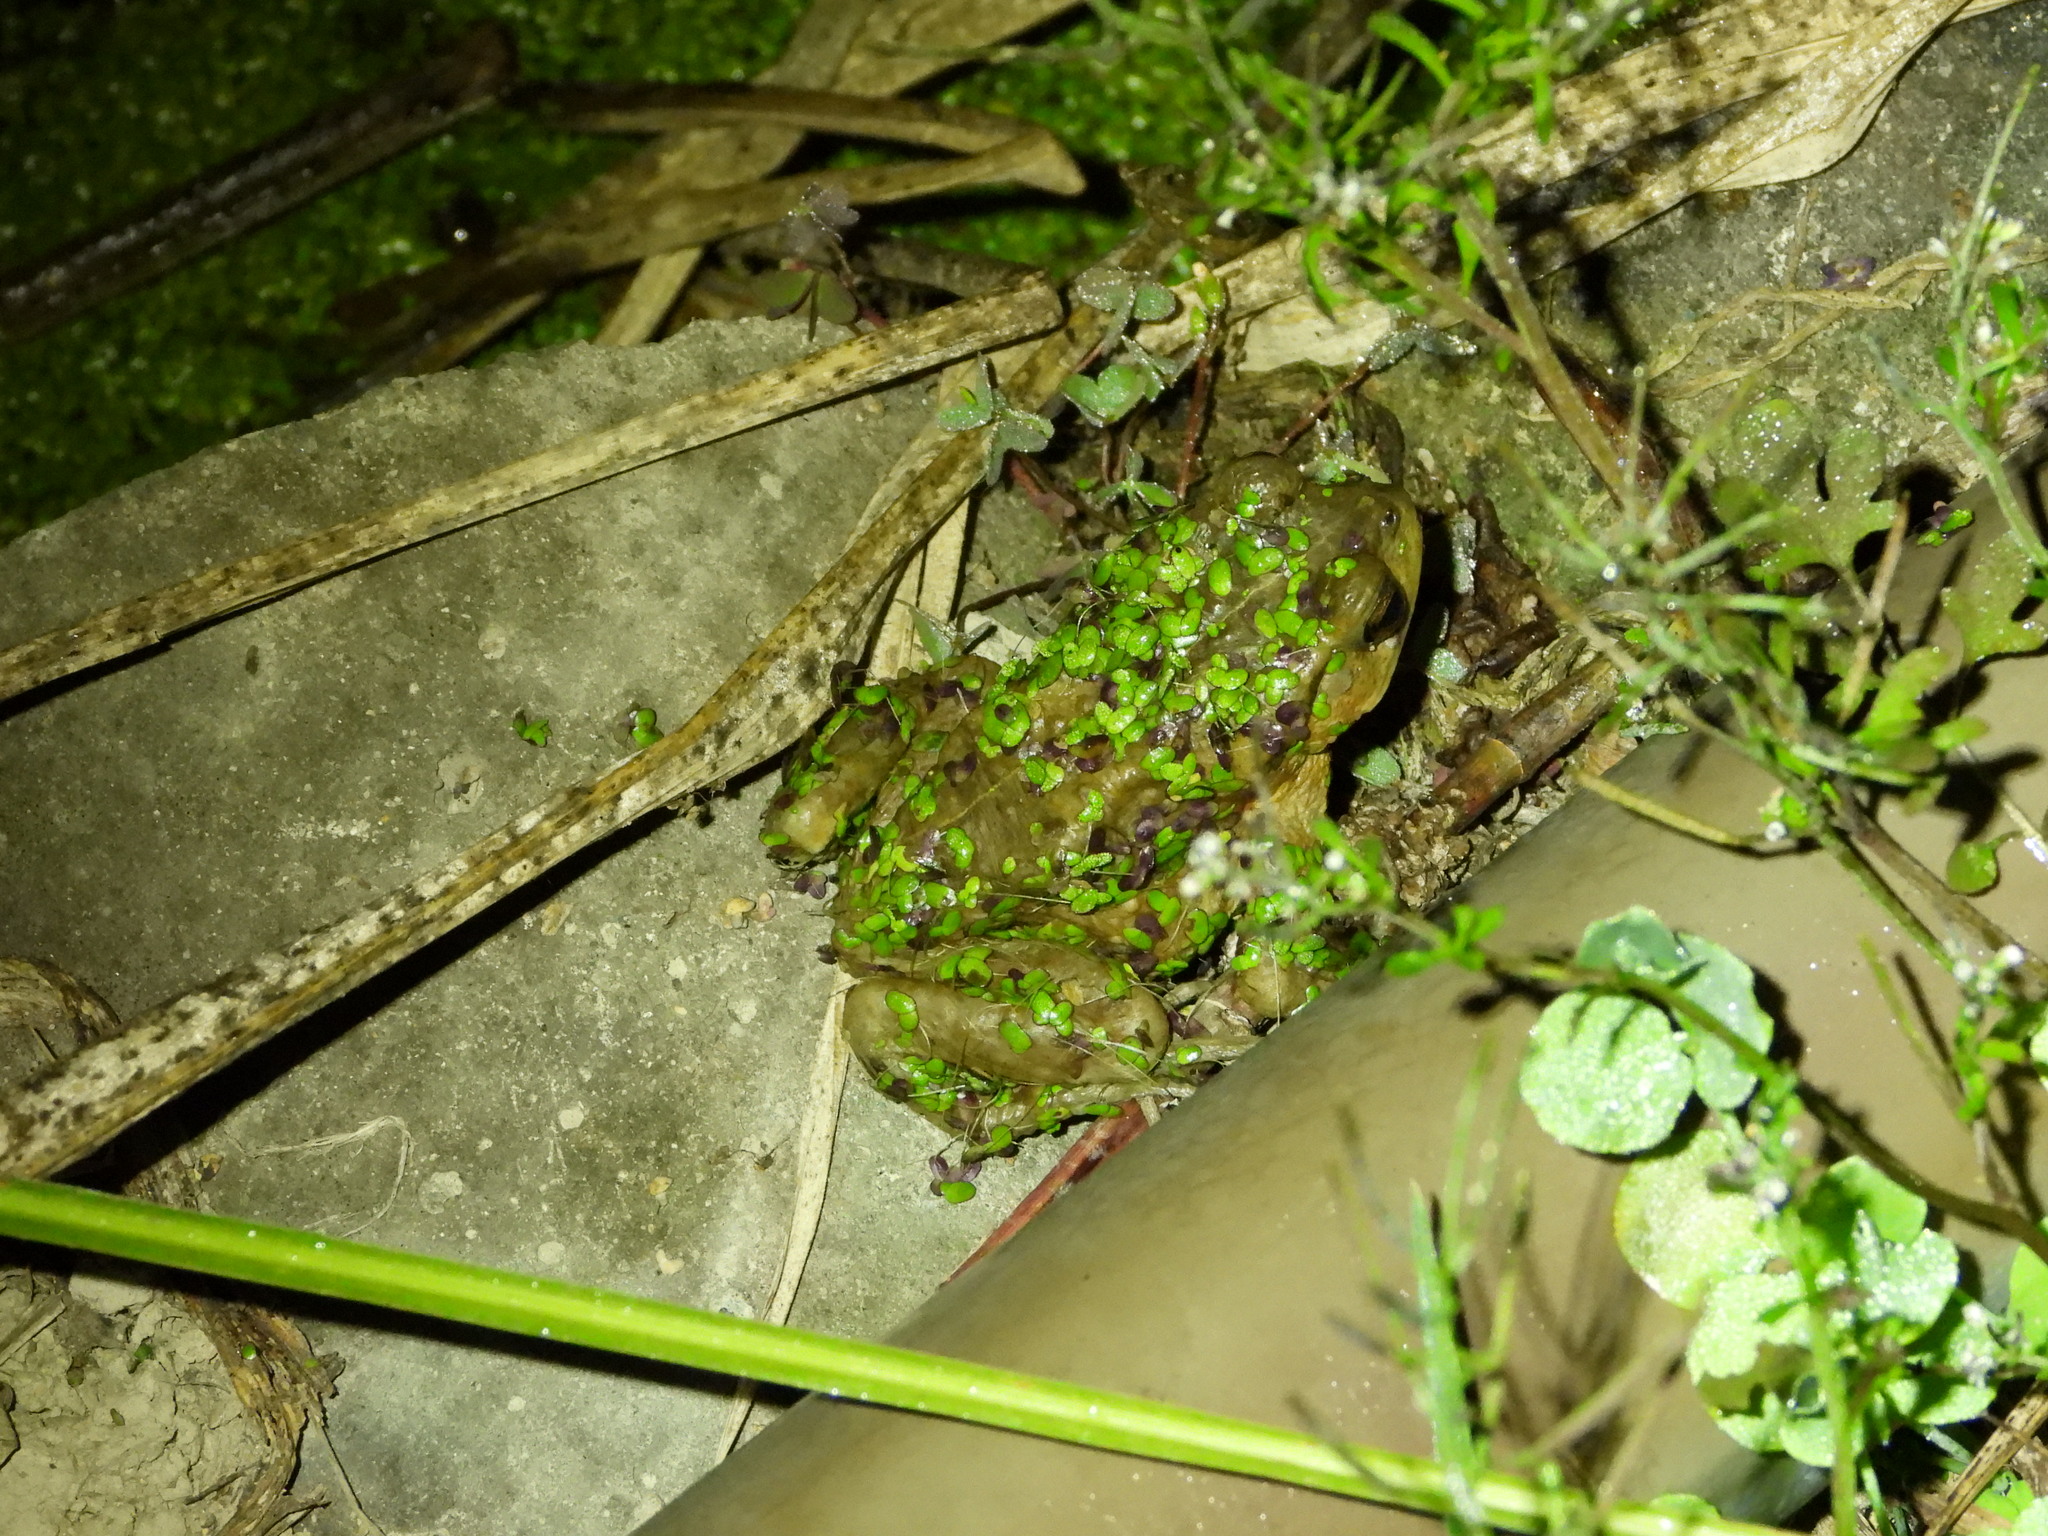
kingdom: Animalia
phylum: Chordata
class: Amphibia
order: Anura
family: Bufonidae
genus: Bufo
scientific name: Bufo bankorensis
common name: Bankor toad
